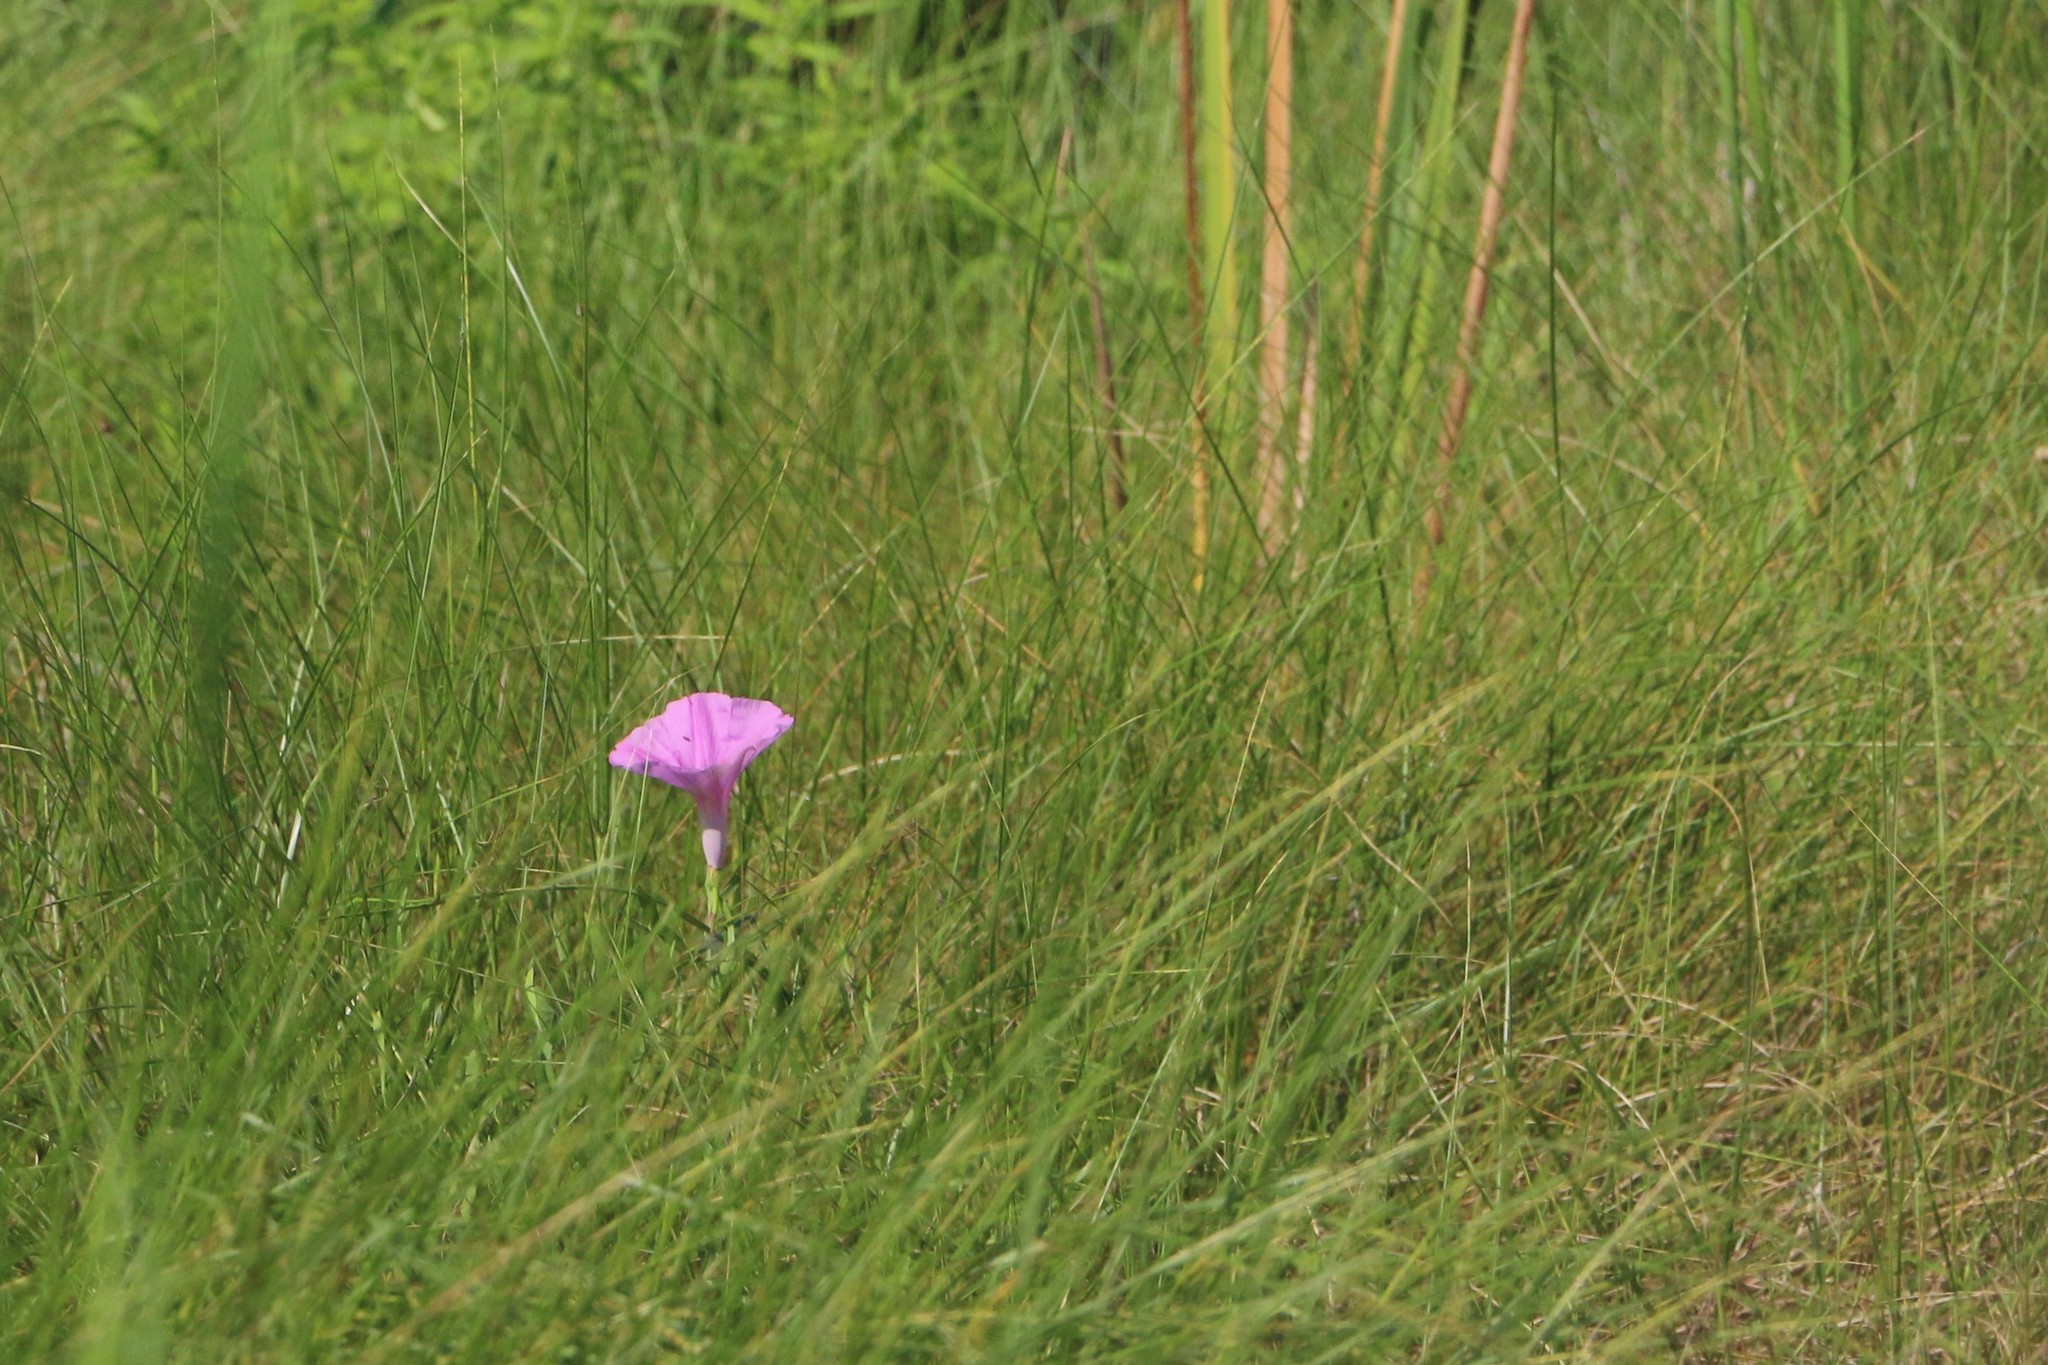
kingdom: Plantae
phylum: Tracheophyta
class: Magnoliopsida
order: Solanales
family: Convolvulaceae
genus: Ipomoea
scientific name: Ipomoea sagittata
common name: Saltmarsh morning glory
